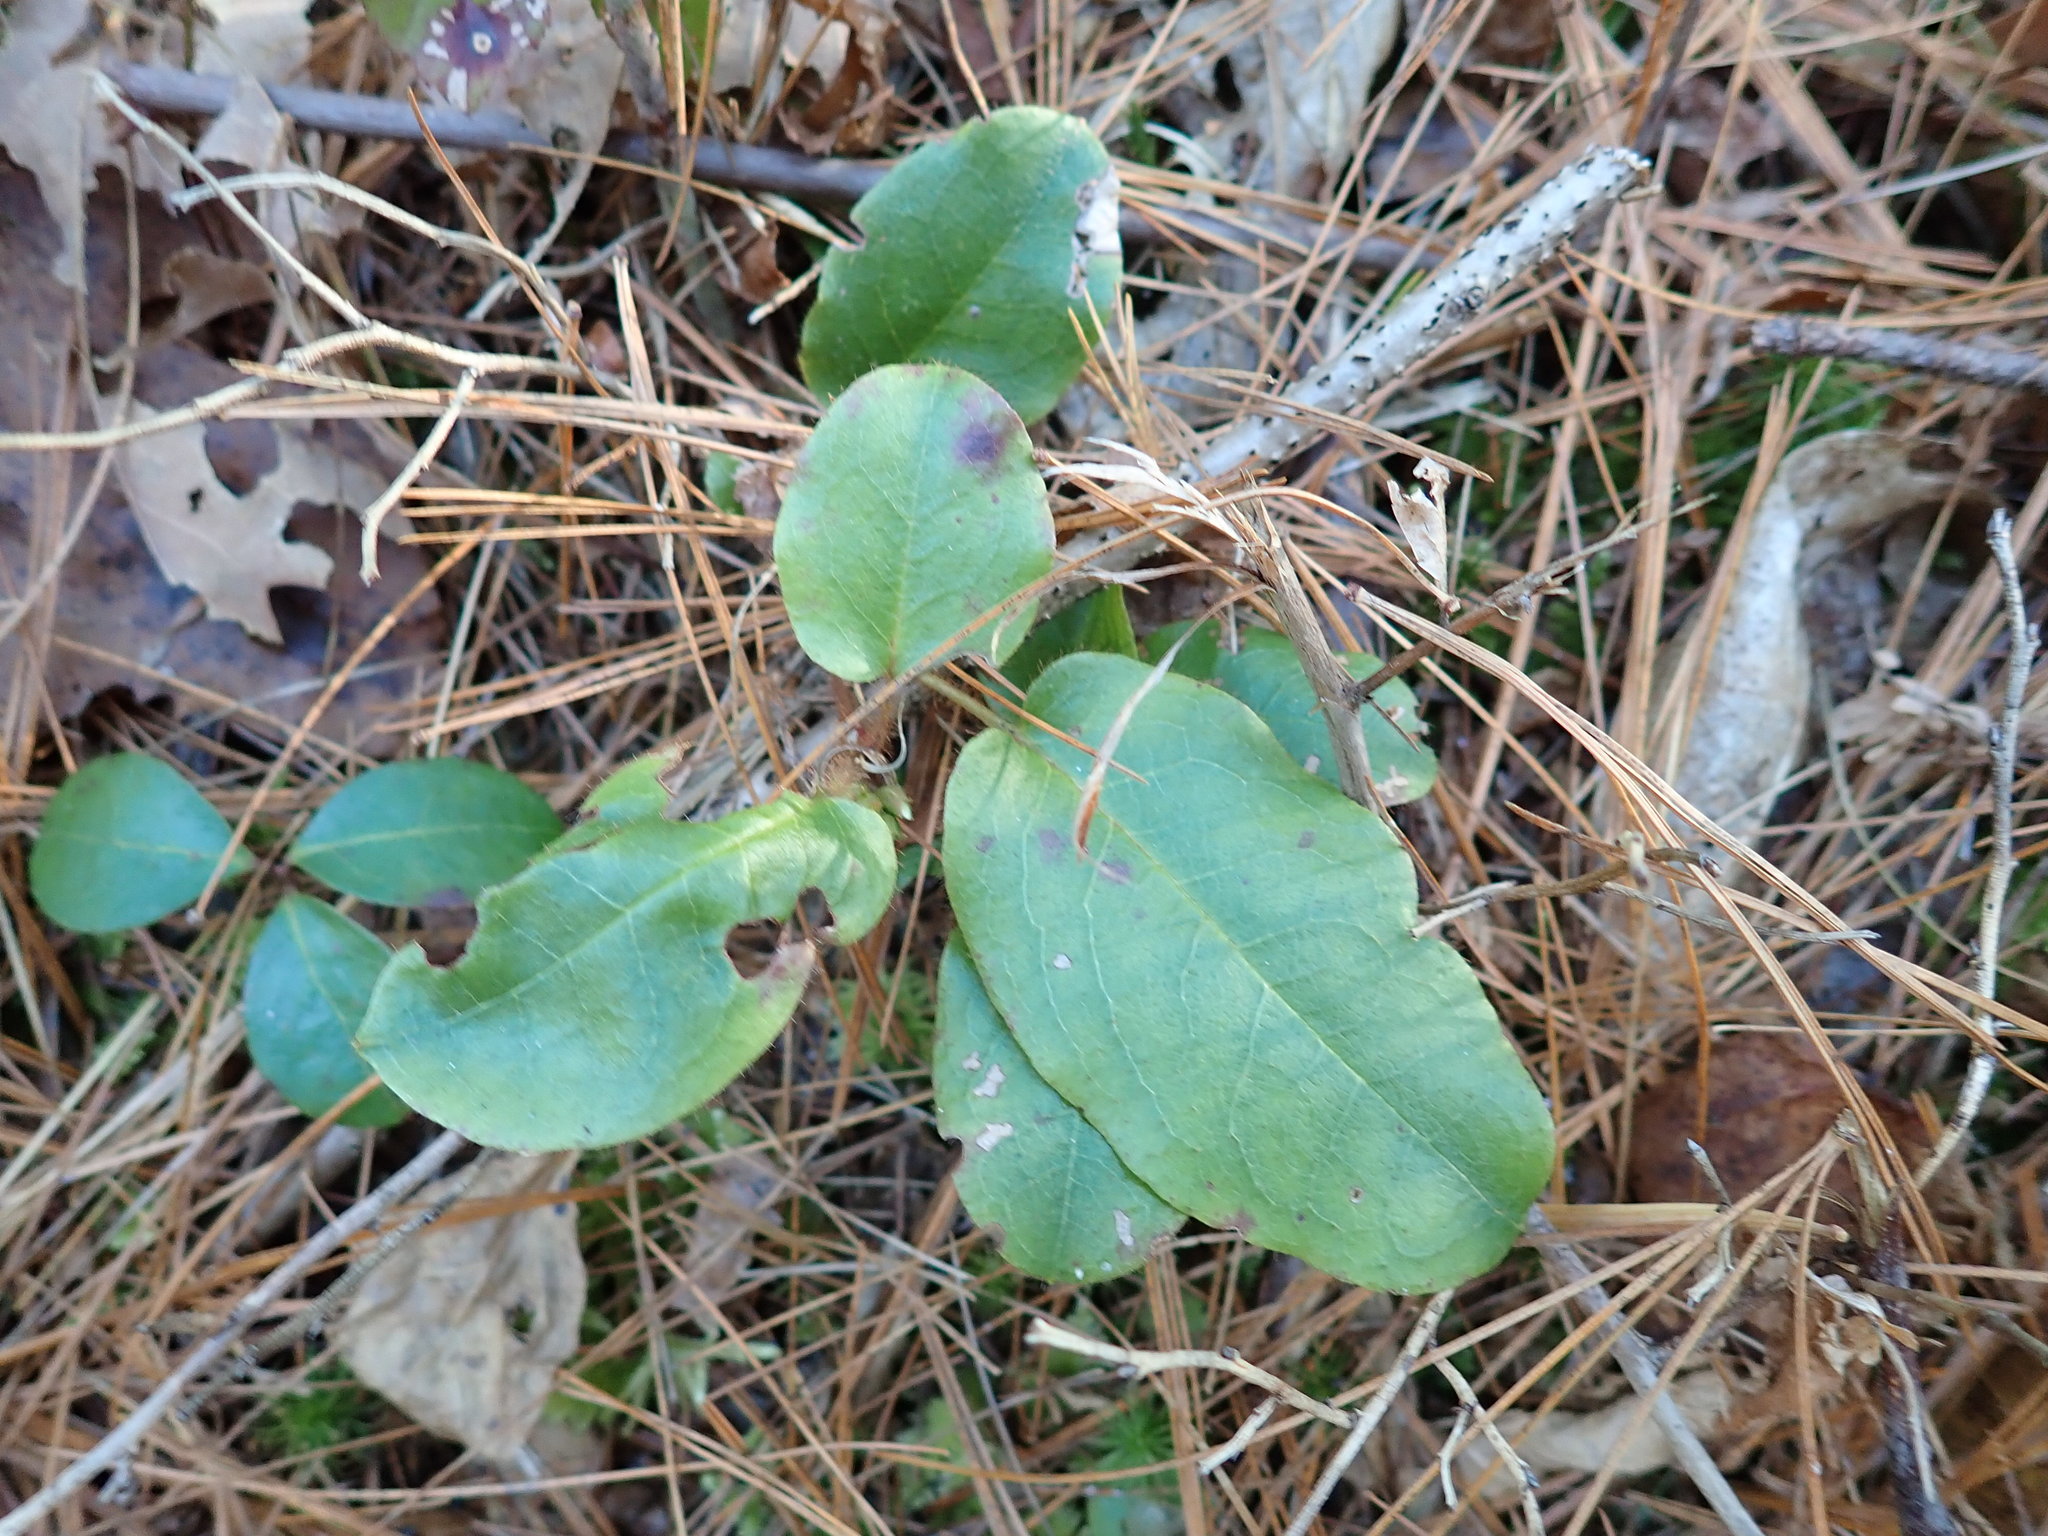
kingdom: Plantae
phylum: Tracheophyta
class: Magnoliopsida
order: Ericales
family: Ericaceae
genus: Epigaea
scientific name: Epigaea repens
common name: Gravelroot
